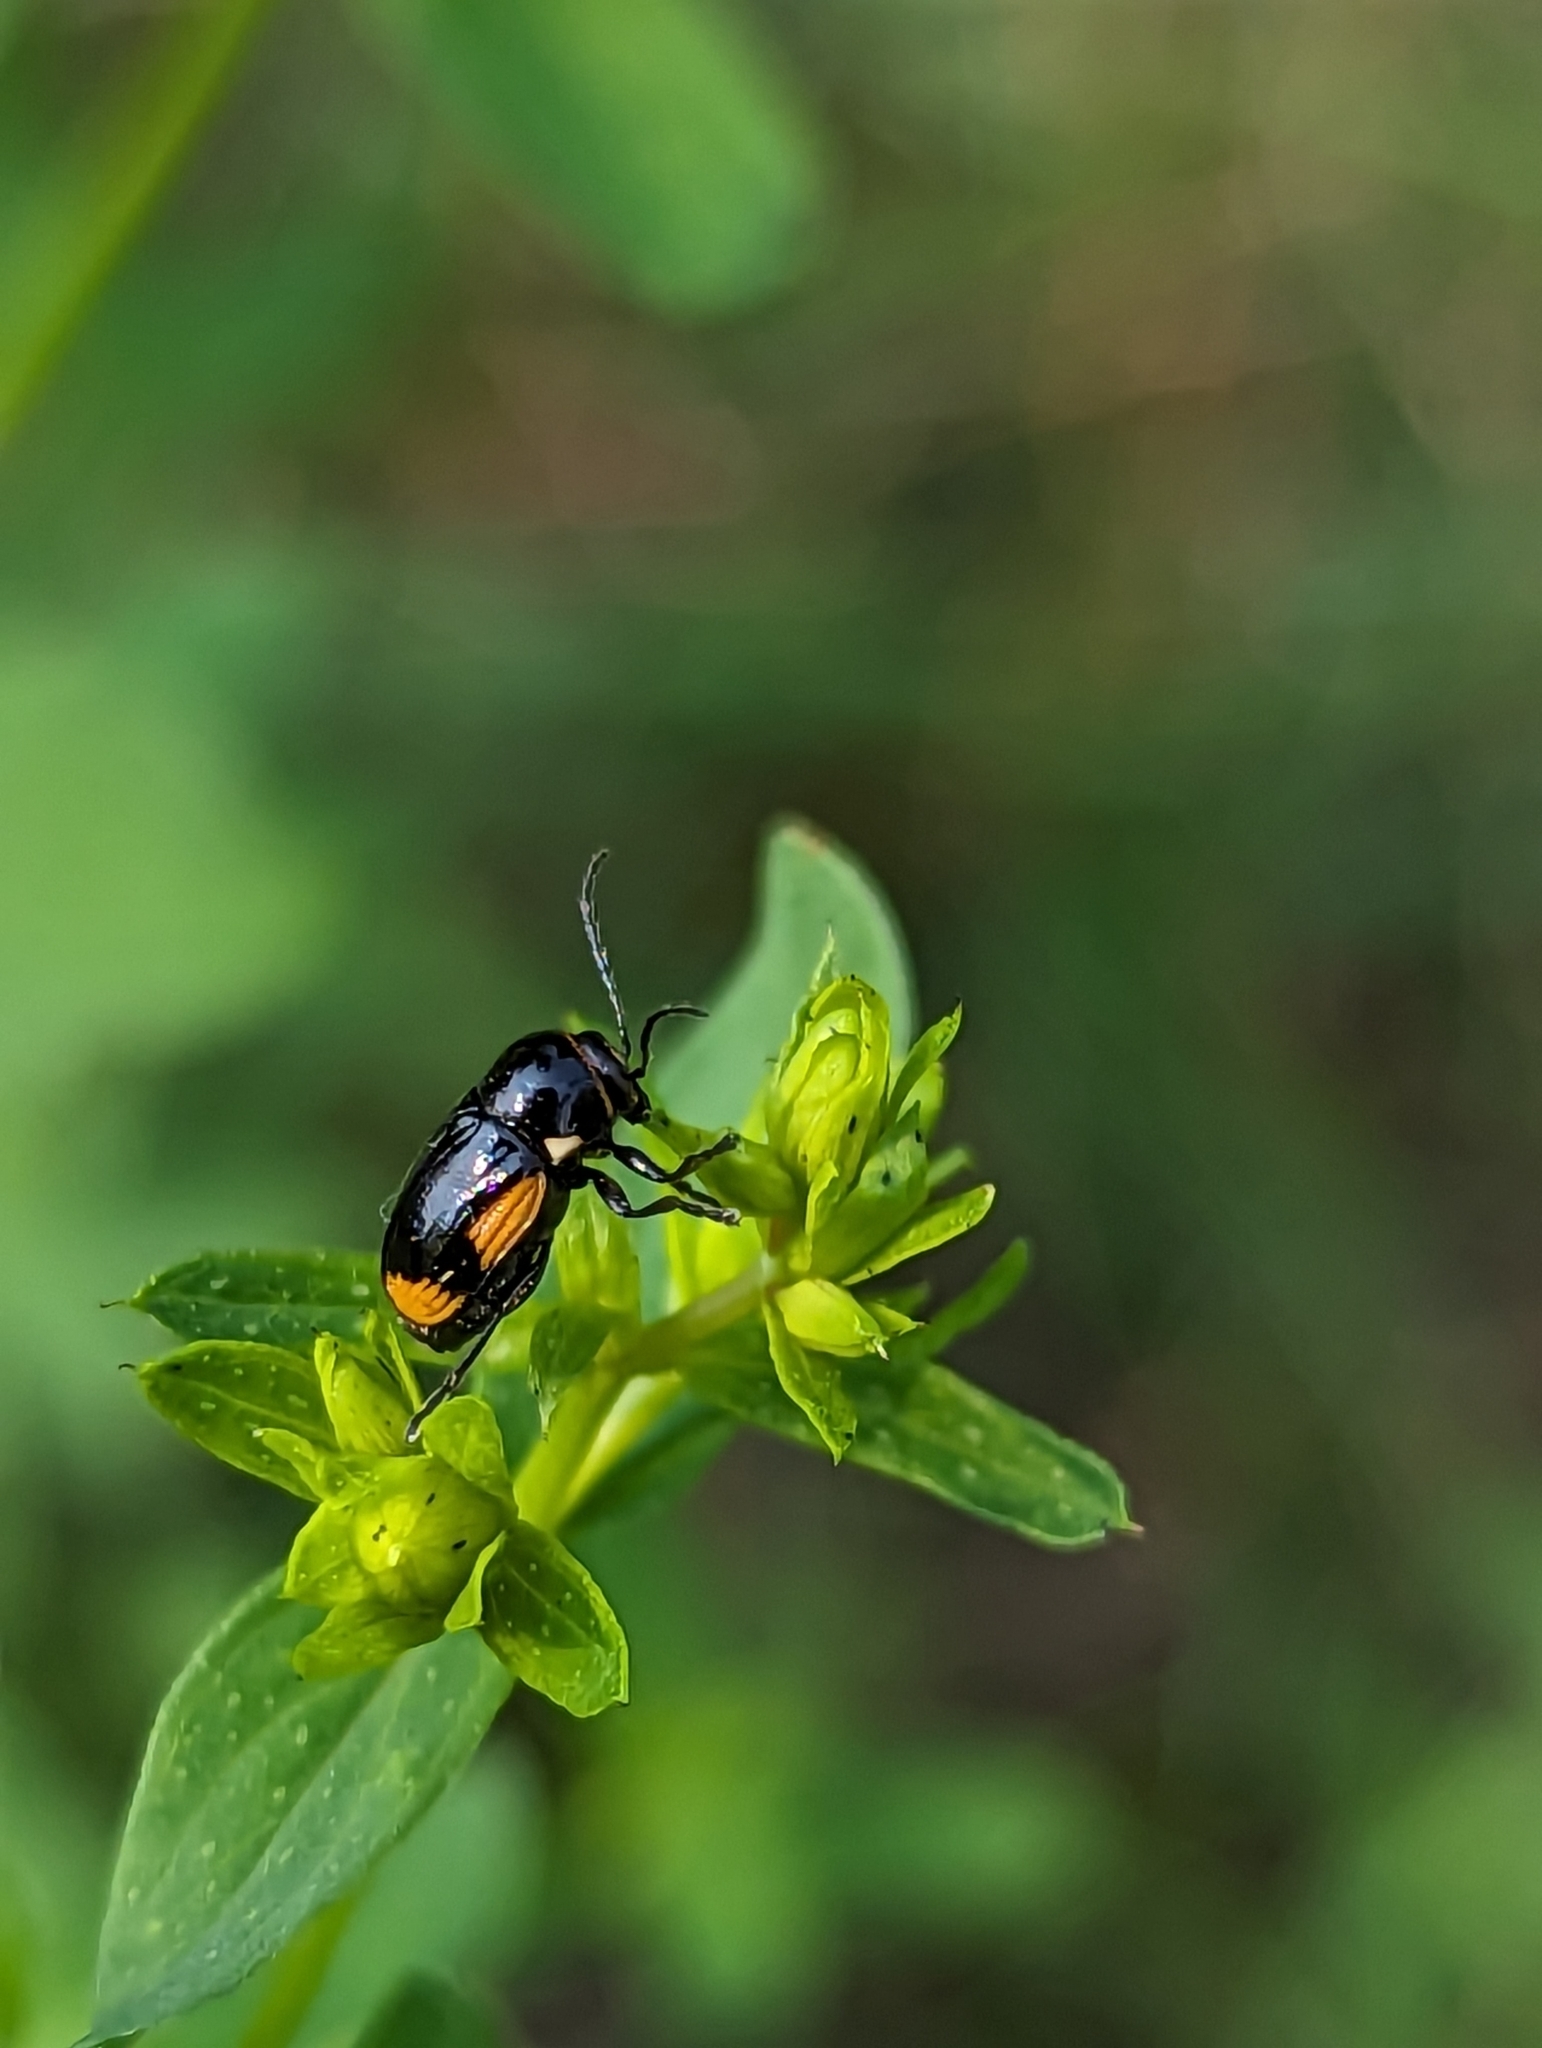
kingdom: Animalia
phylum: Arthropoda
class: Insecta
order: Coleoptera
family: Chrysomelidae
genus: Cryptocephalus
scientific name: Cryptocephalus moraei
